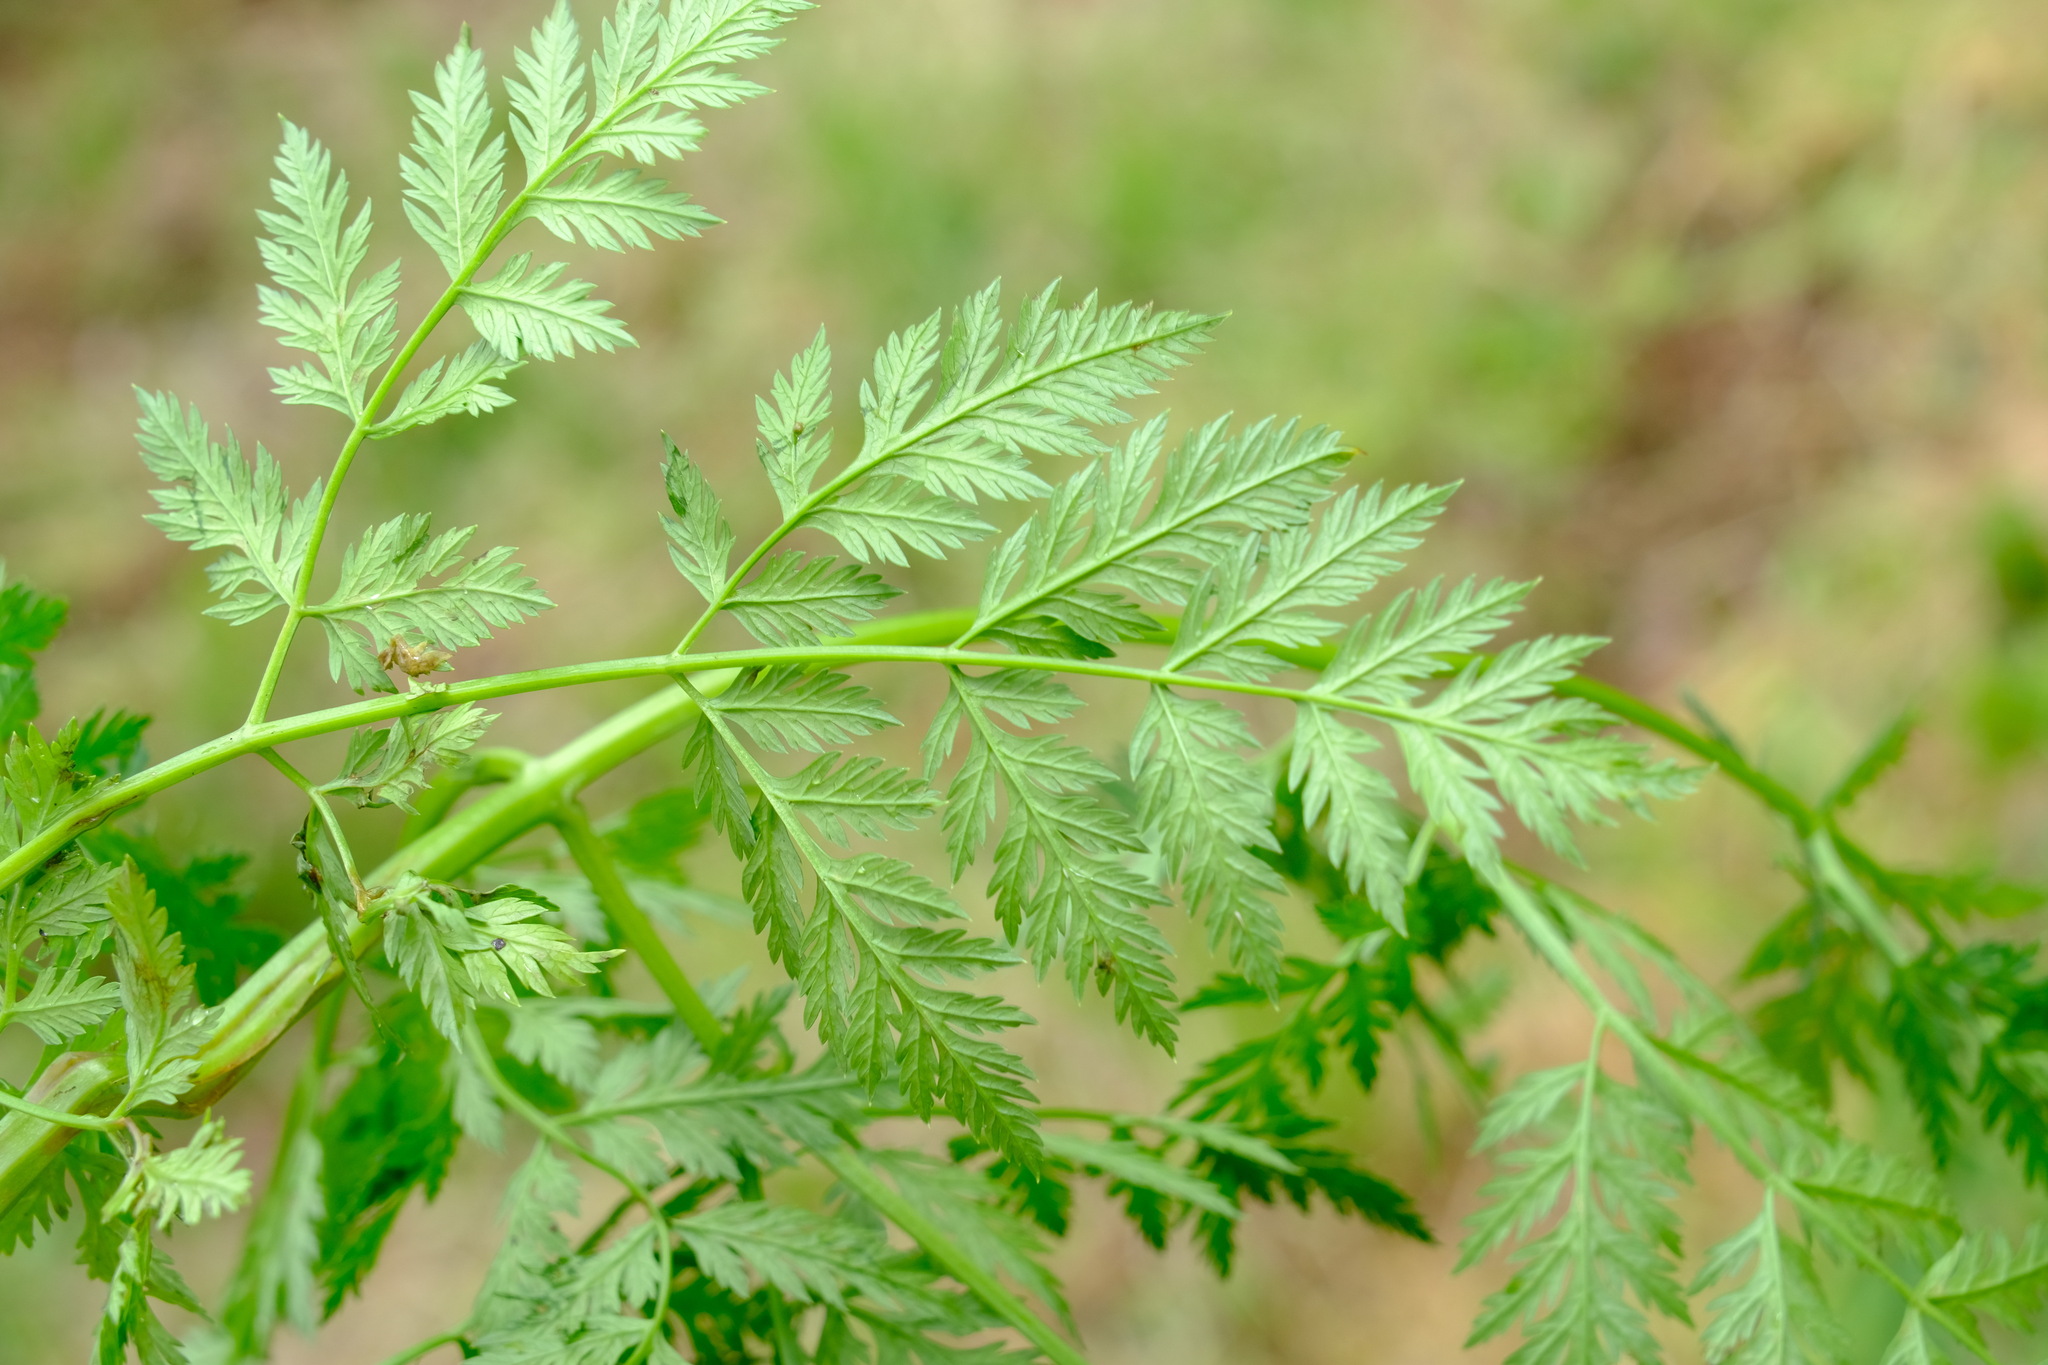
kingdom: Plantae
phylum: Tracheophyta
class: Magnoliopsida
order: Apiales
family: Apiaceae
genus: Conium
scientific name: Conium maculatum
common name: Hemlock
